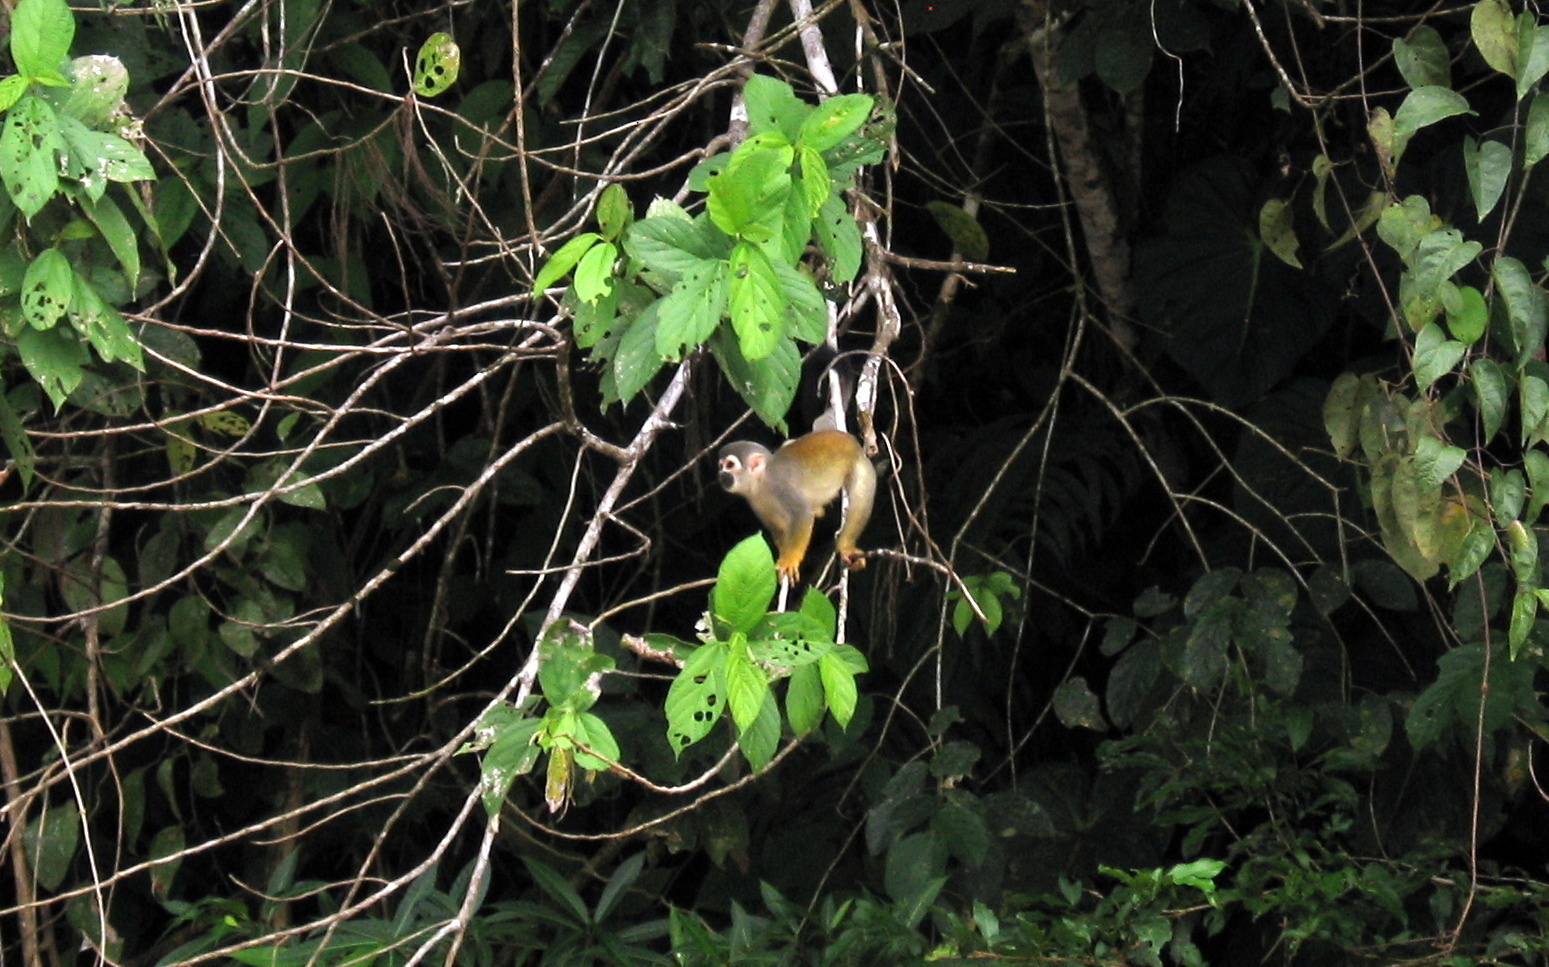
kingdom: Animalia
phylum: Chordata
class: Mammalia
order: Primates
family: Cebidae
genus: Saimiri
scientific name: Saimiri cassiquiarensis
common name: Humboldt’s squirrel monkey
